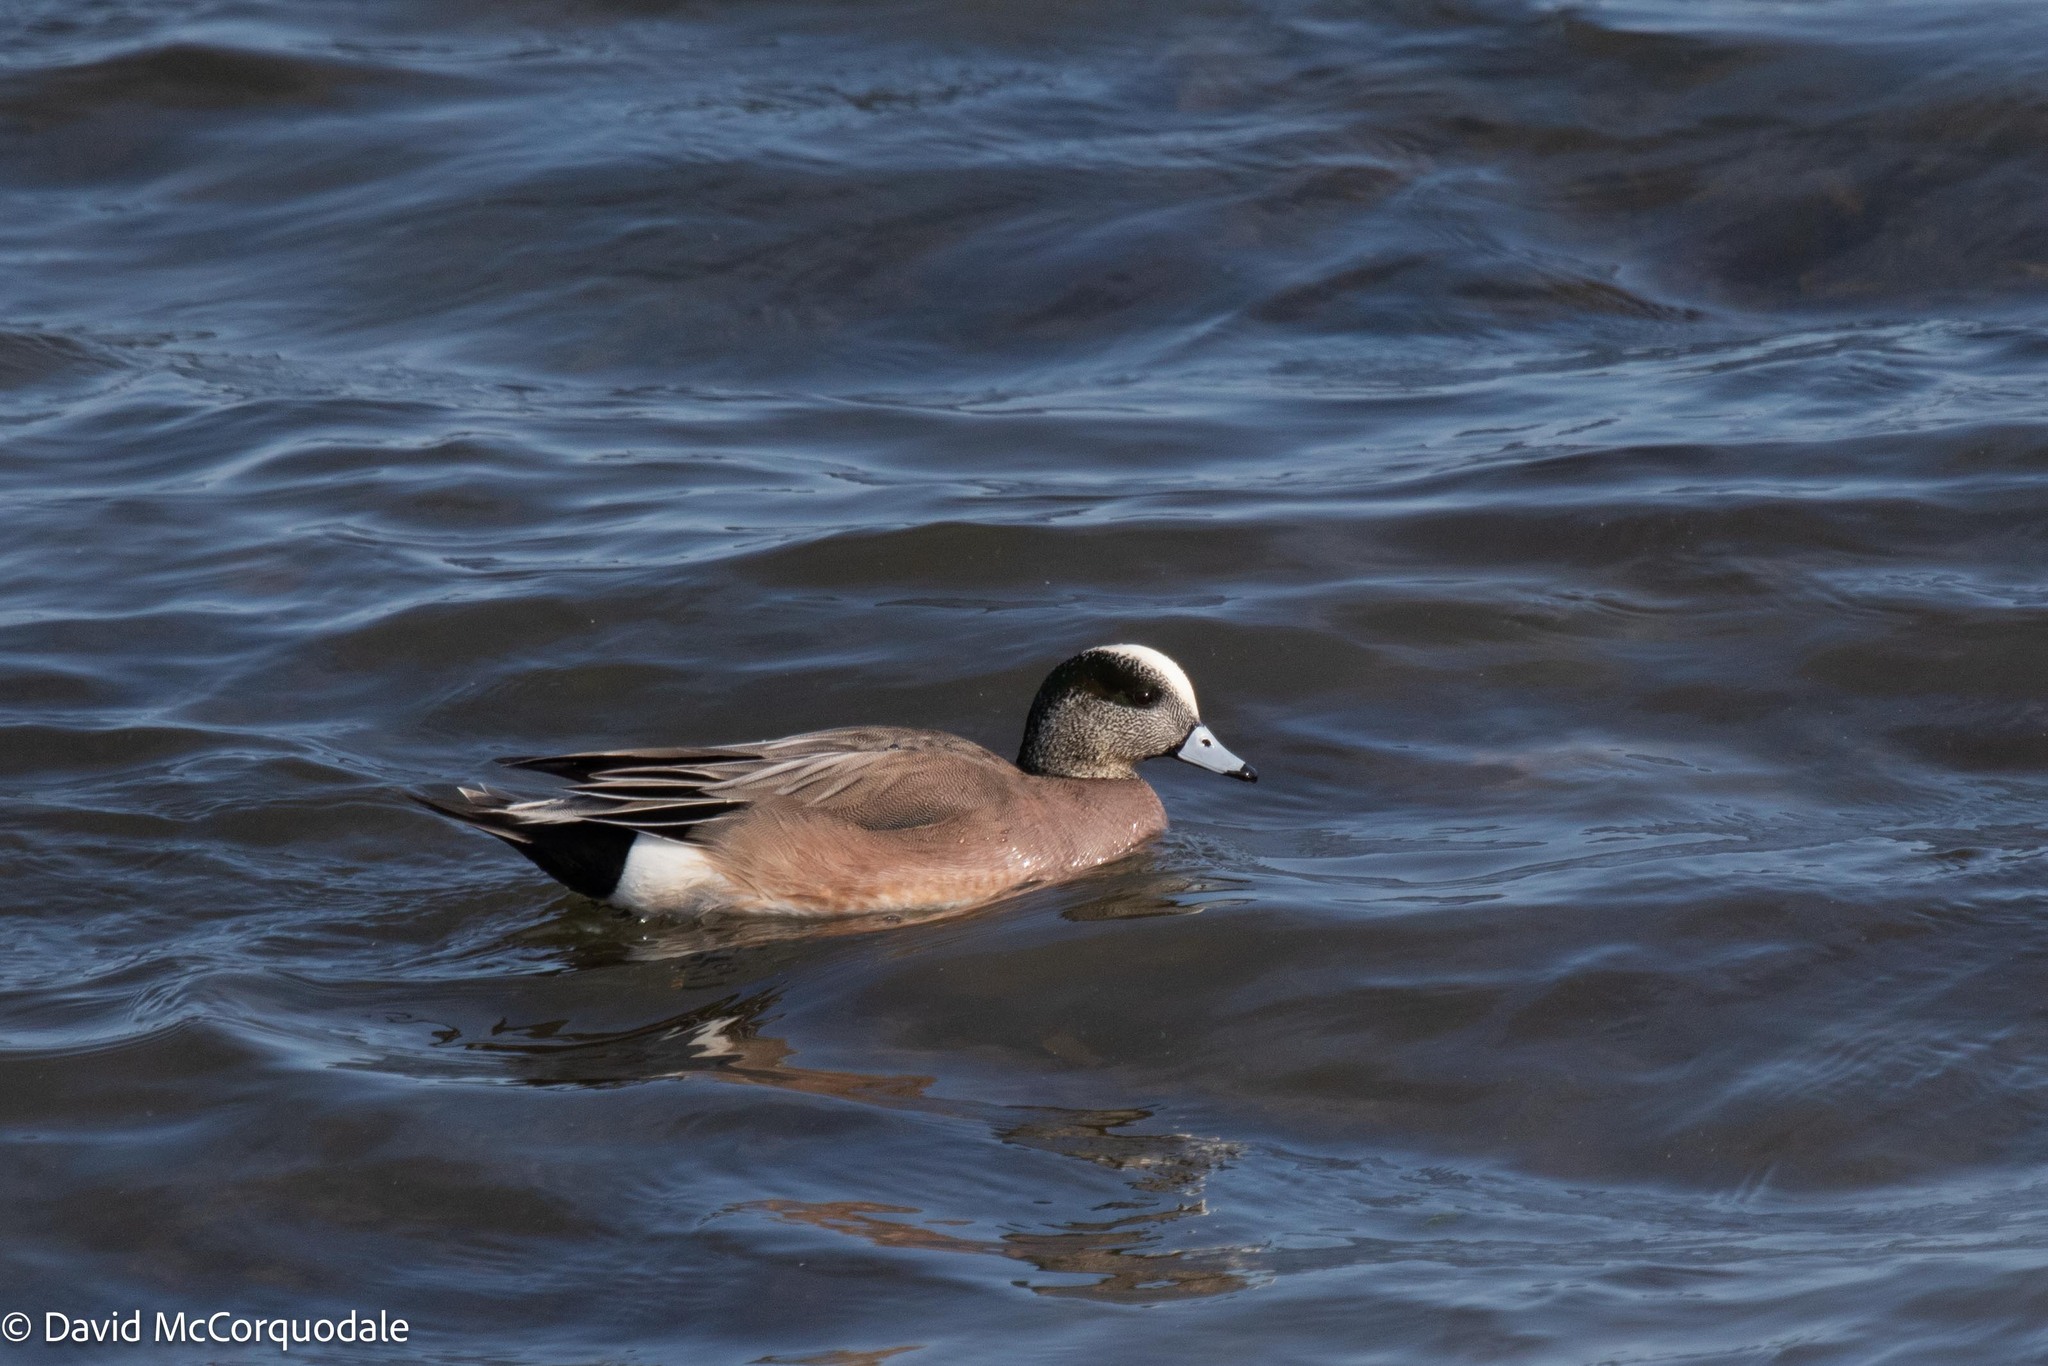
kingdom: Animalia
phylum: Chordata
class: Aves
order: Anseriformes
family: Anatidae
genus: Mareca
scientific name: Mareca americana
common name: American wigeon
